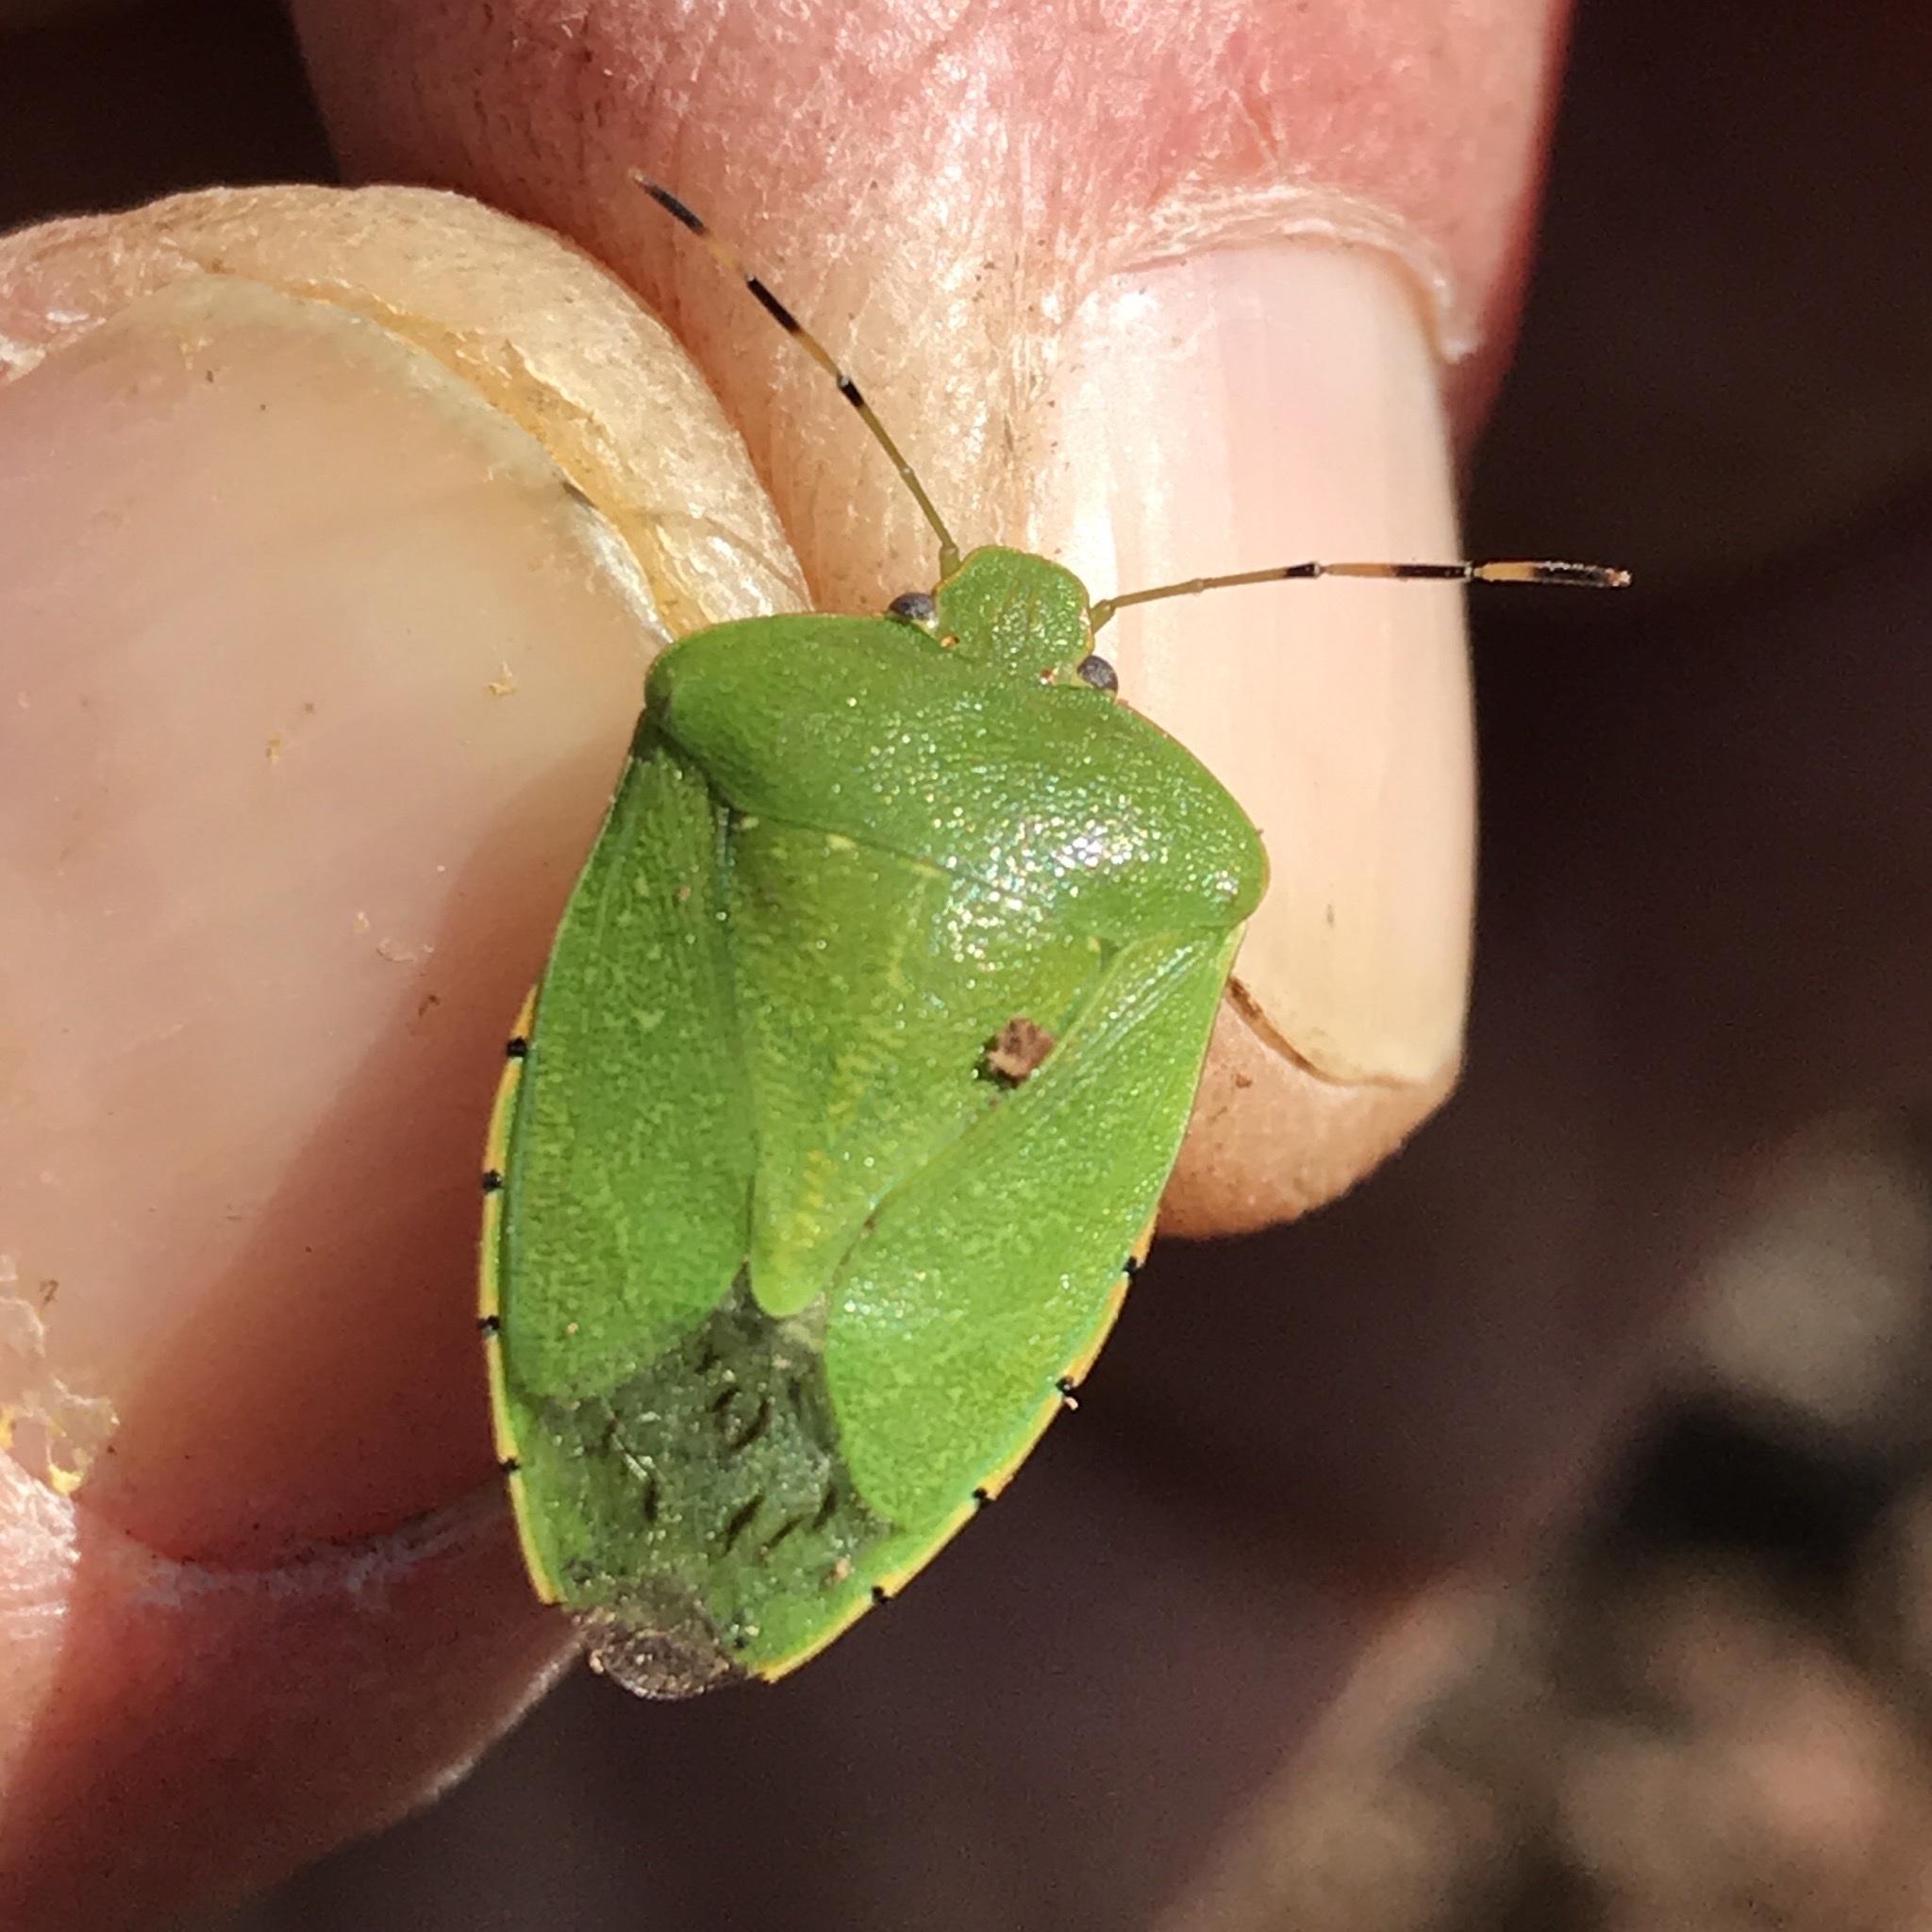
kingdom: Animalia
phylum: Arthropoda
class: Insecta
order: Hemiptera
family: Pentatomidae
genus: Chinavia
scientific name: Chinavia hilaris
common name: Green stink bug
